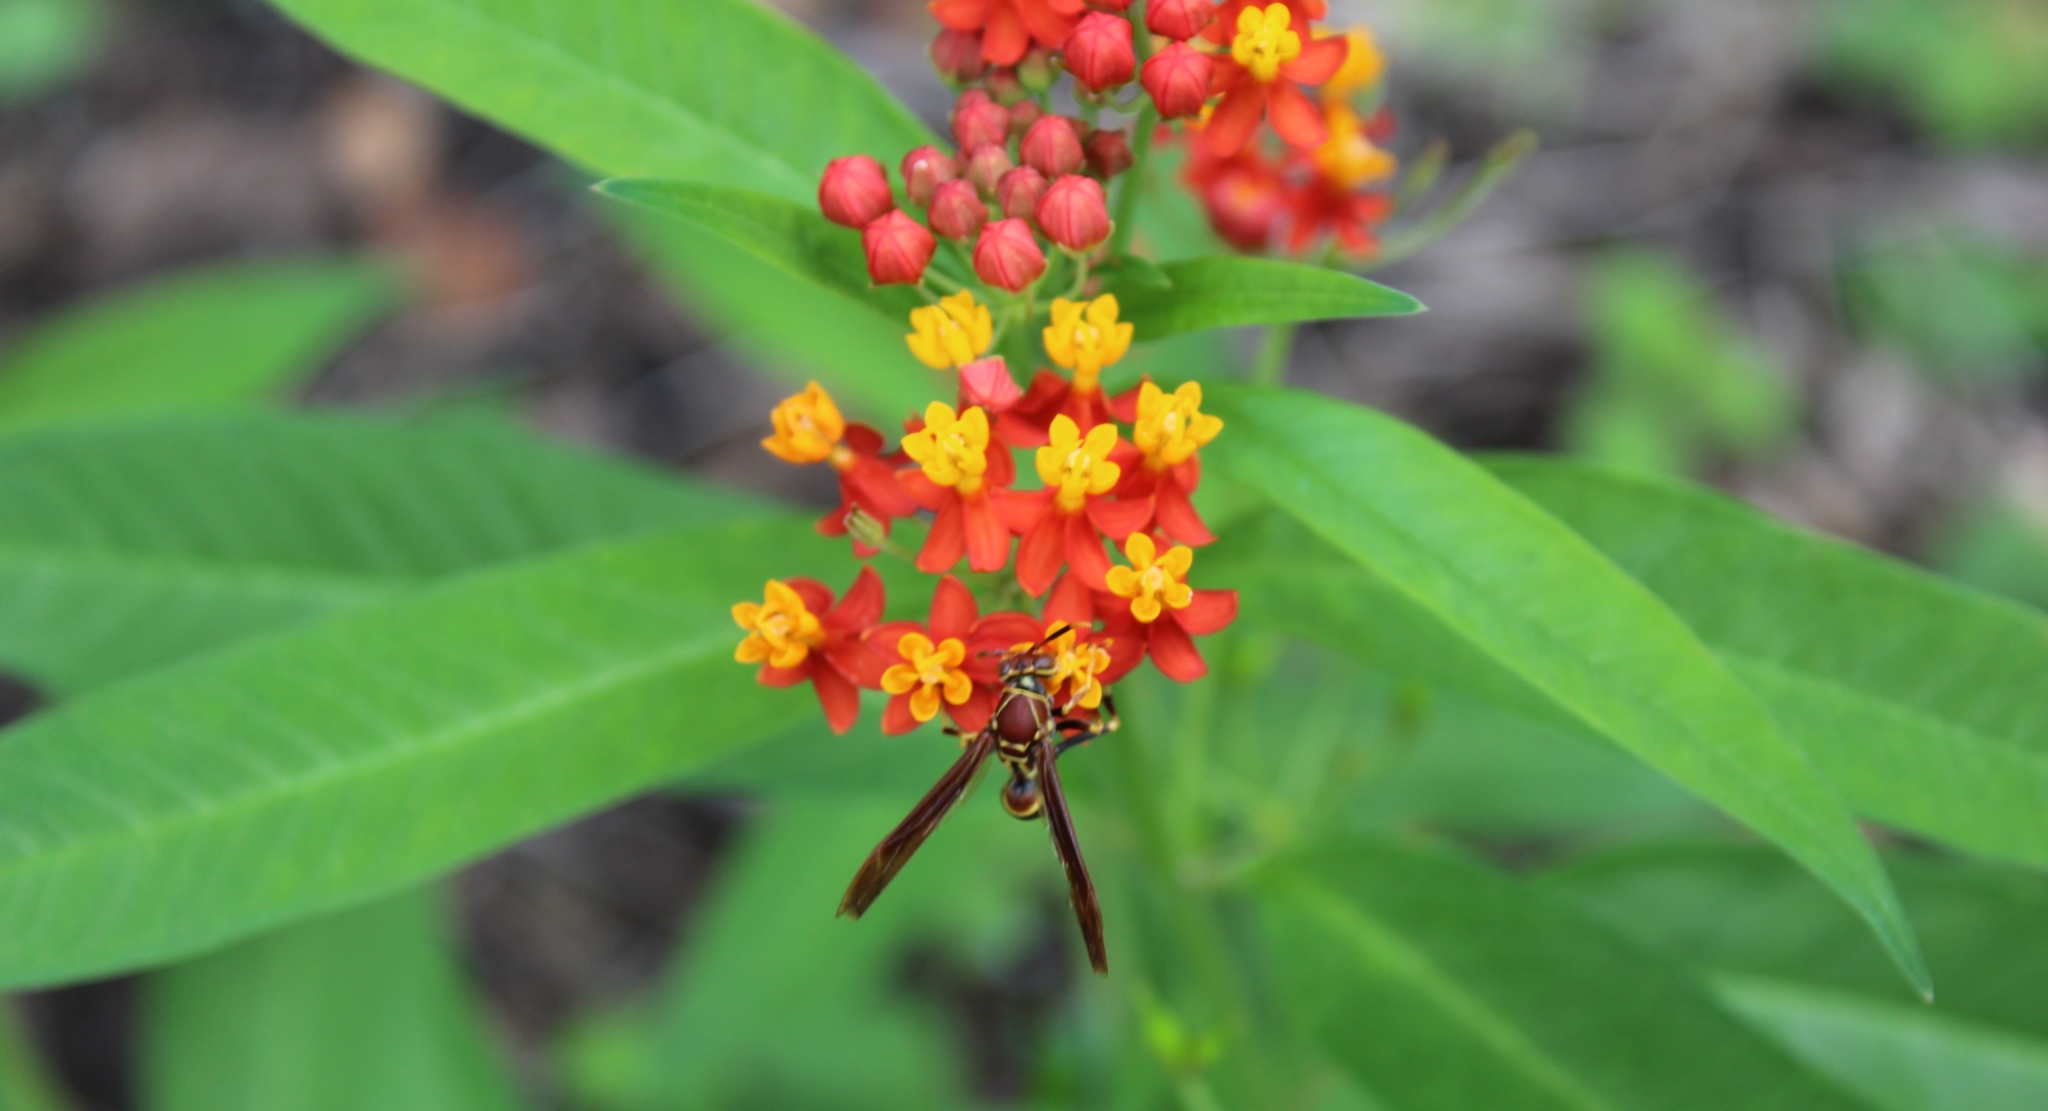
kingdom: Animalia
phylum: Arthropoda
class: Insecta
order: Hymenoptera
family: Eumenidae
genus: Polistes
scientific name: Polistes instabilis
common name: Unstable paper wasp
